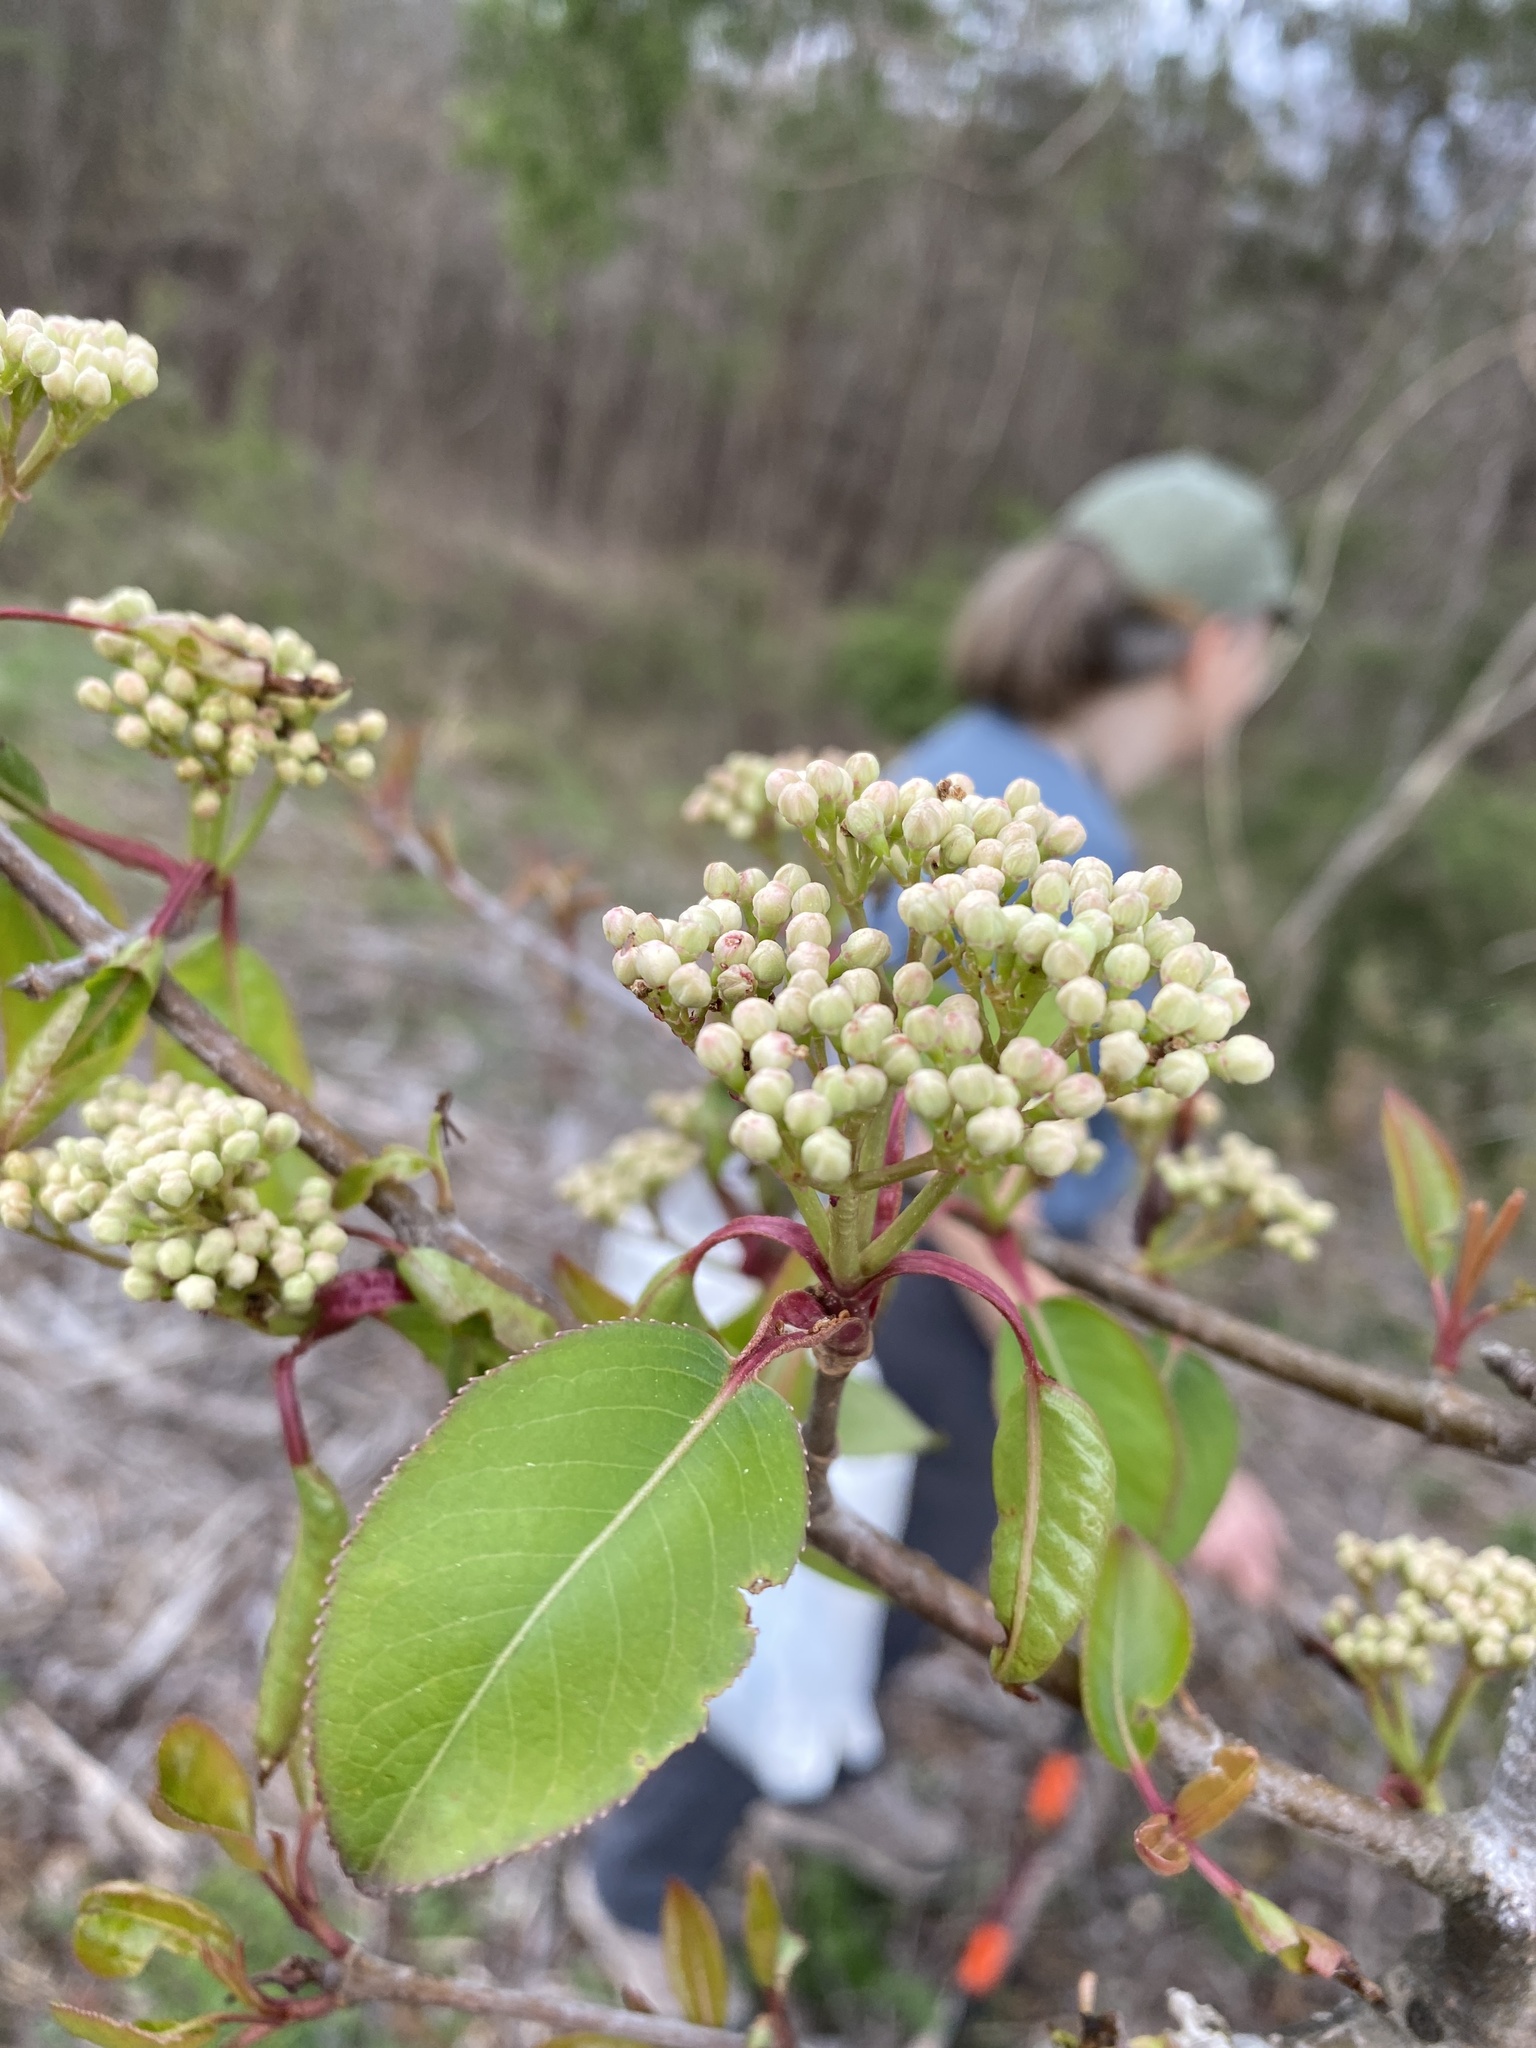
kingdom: Plantae
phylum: Tracheophyta
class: Magnoliopsida
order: Dipsacales
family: Viburnaceae
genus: Viburnum
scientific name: Viburnum prunifolium
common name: Black haw
